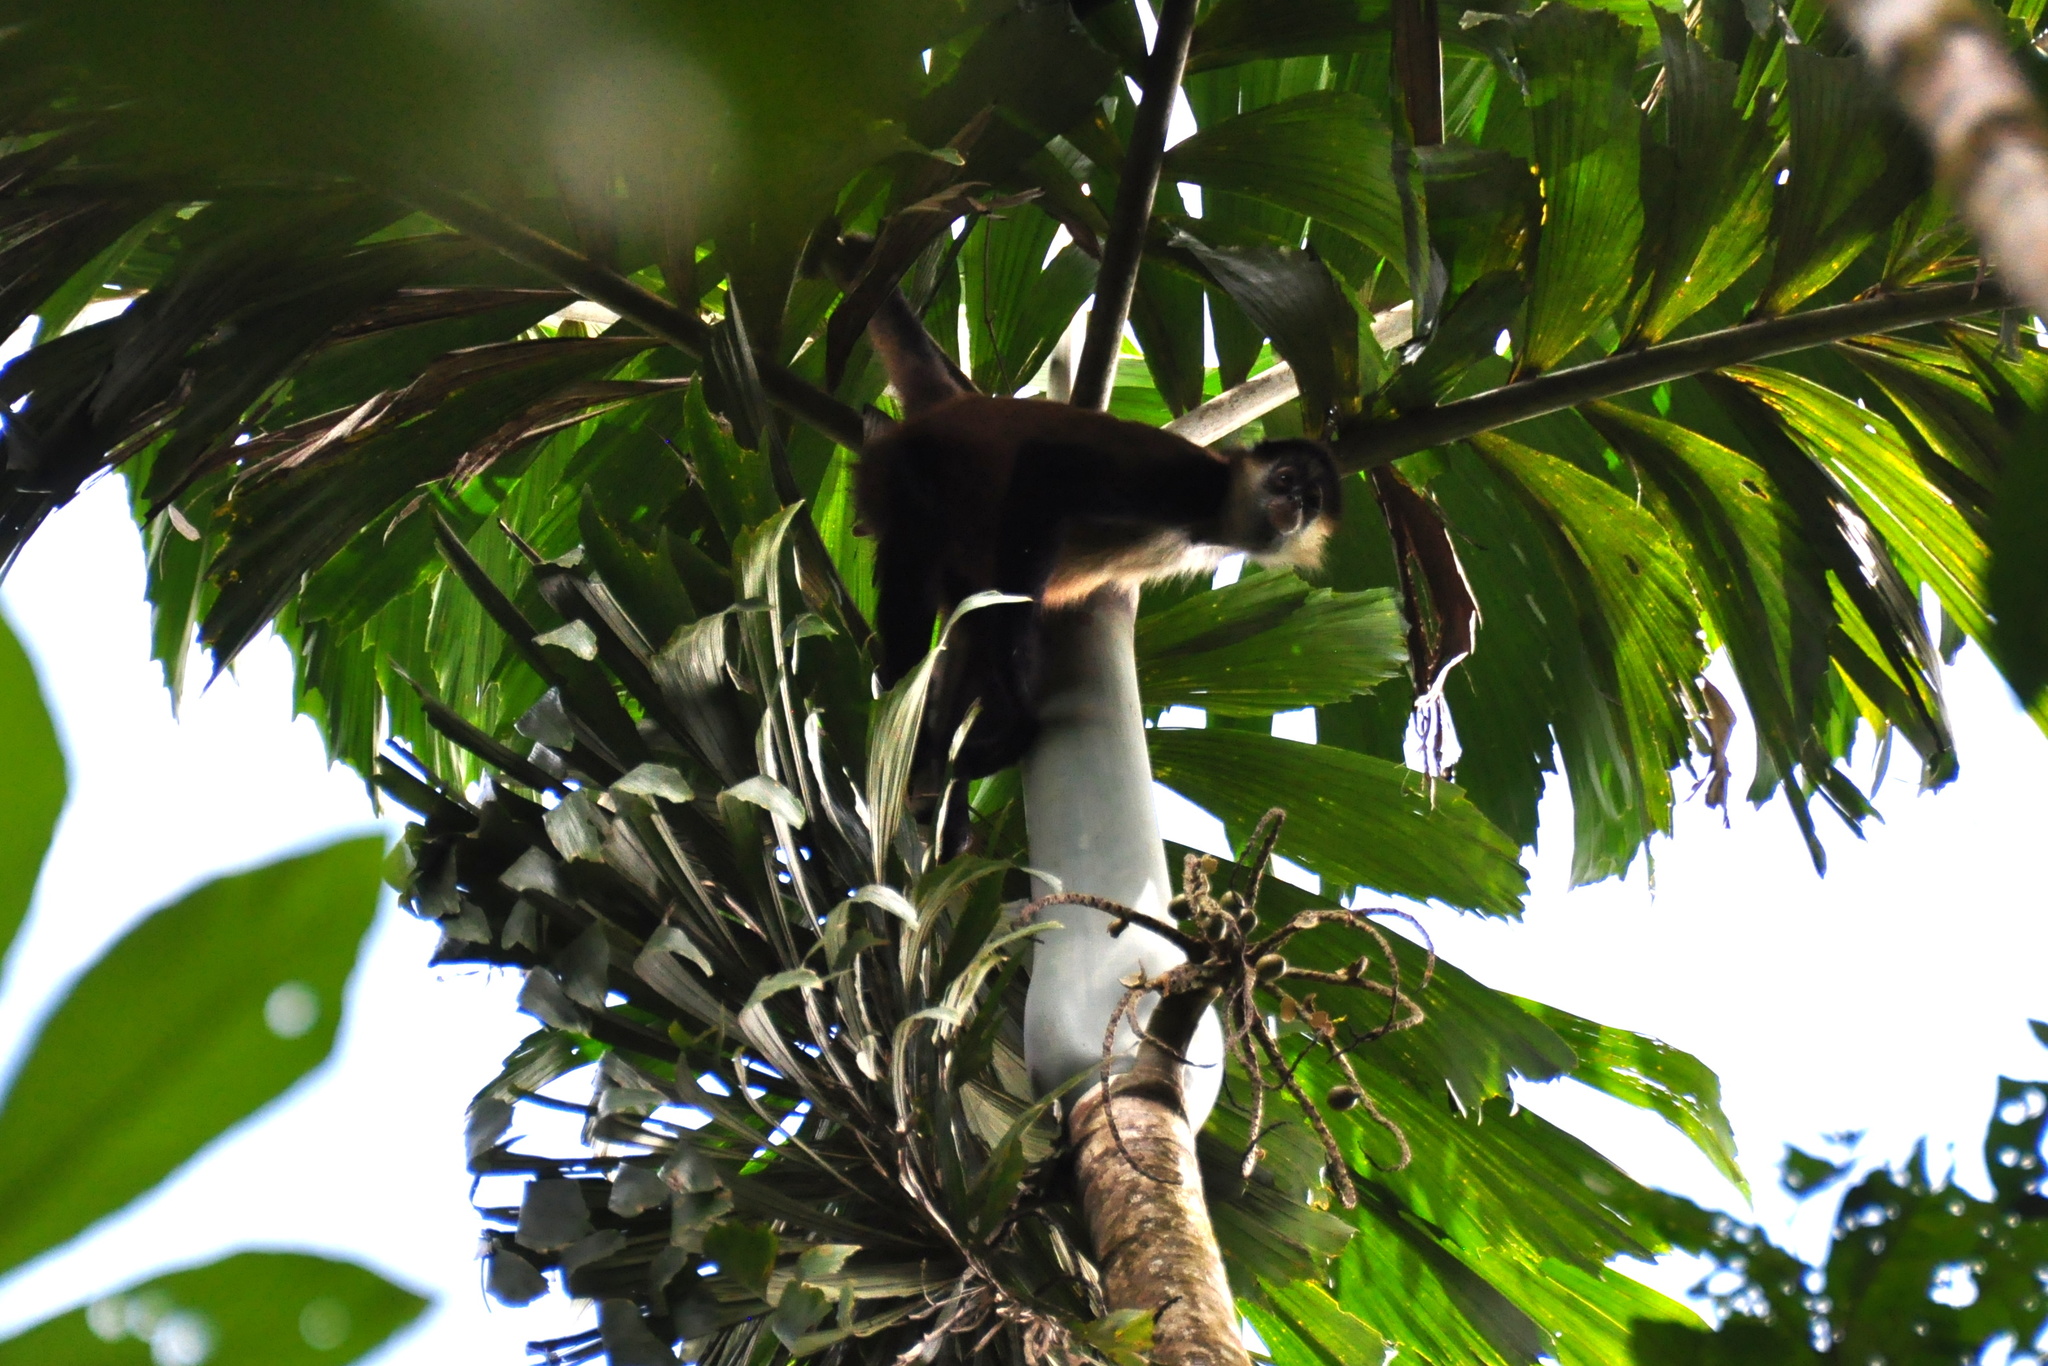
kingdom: Animalia
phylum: Chordata
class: Mammalia
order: Primates
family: Atelidae
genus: Ateles
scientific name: Ateles geoffroyi
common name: Black-handed spider monkey
